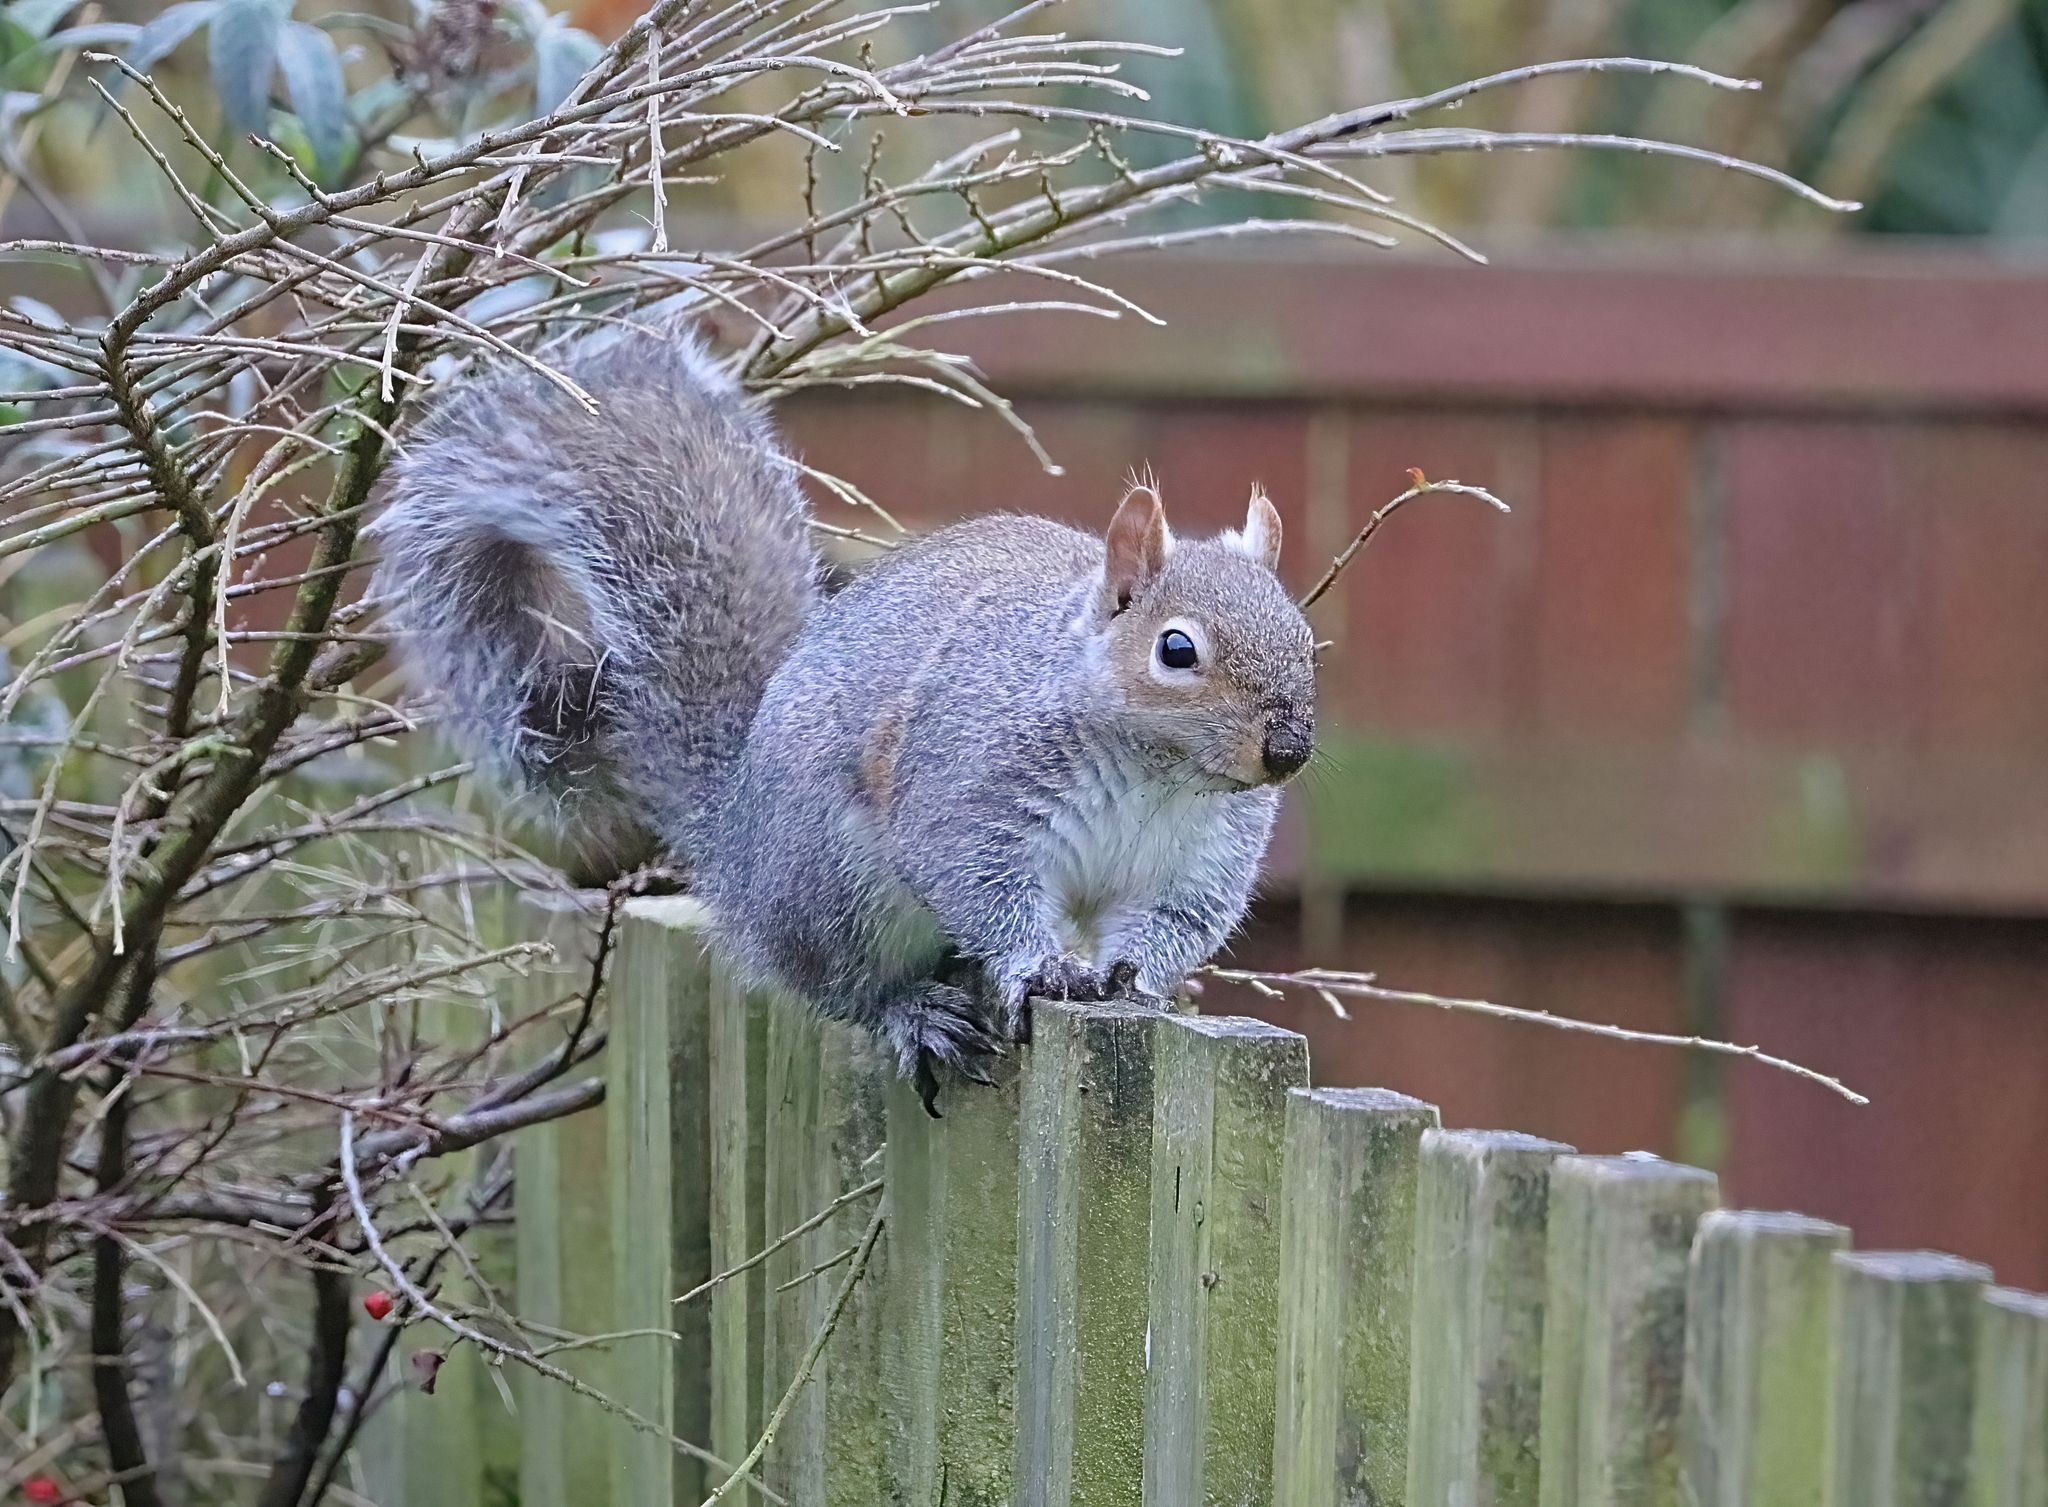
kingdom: Animalia
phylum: Chordata
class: Mammalia
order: Rodentia
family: Sciuridae
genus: Sciurus
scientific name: Sciurus carolinensis
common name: Eastern gray squirrel
